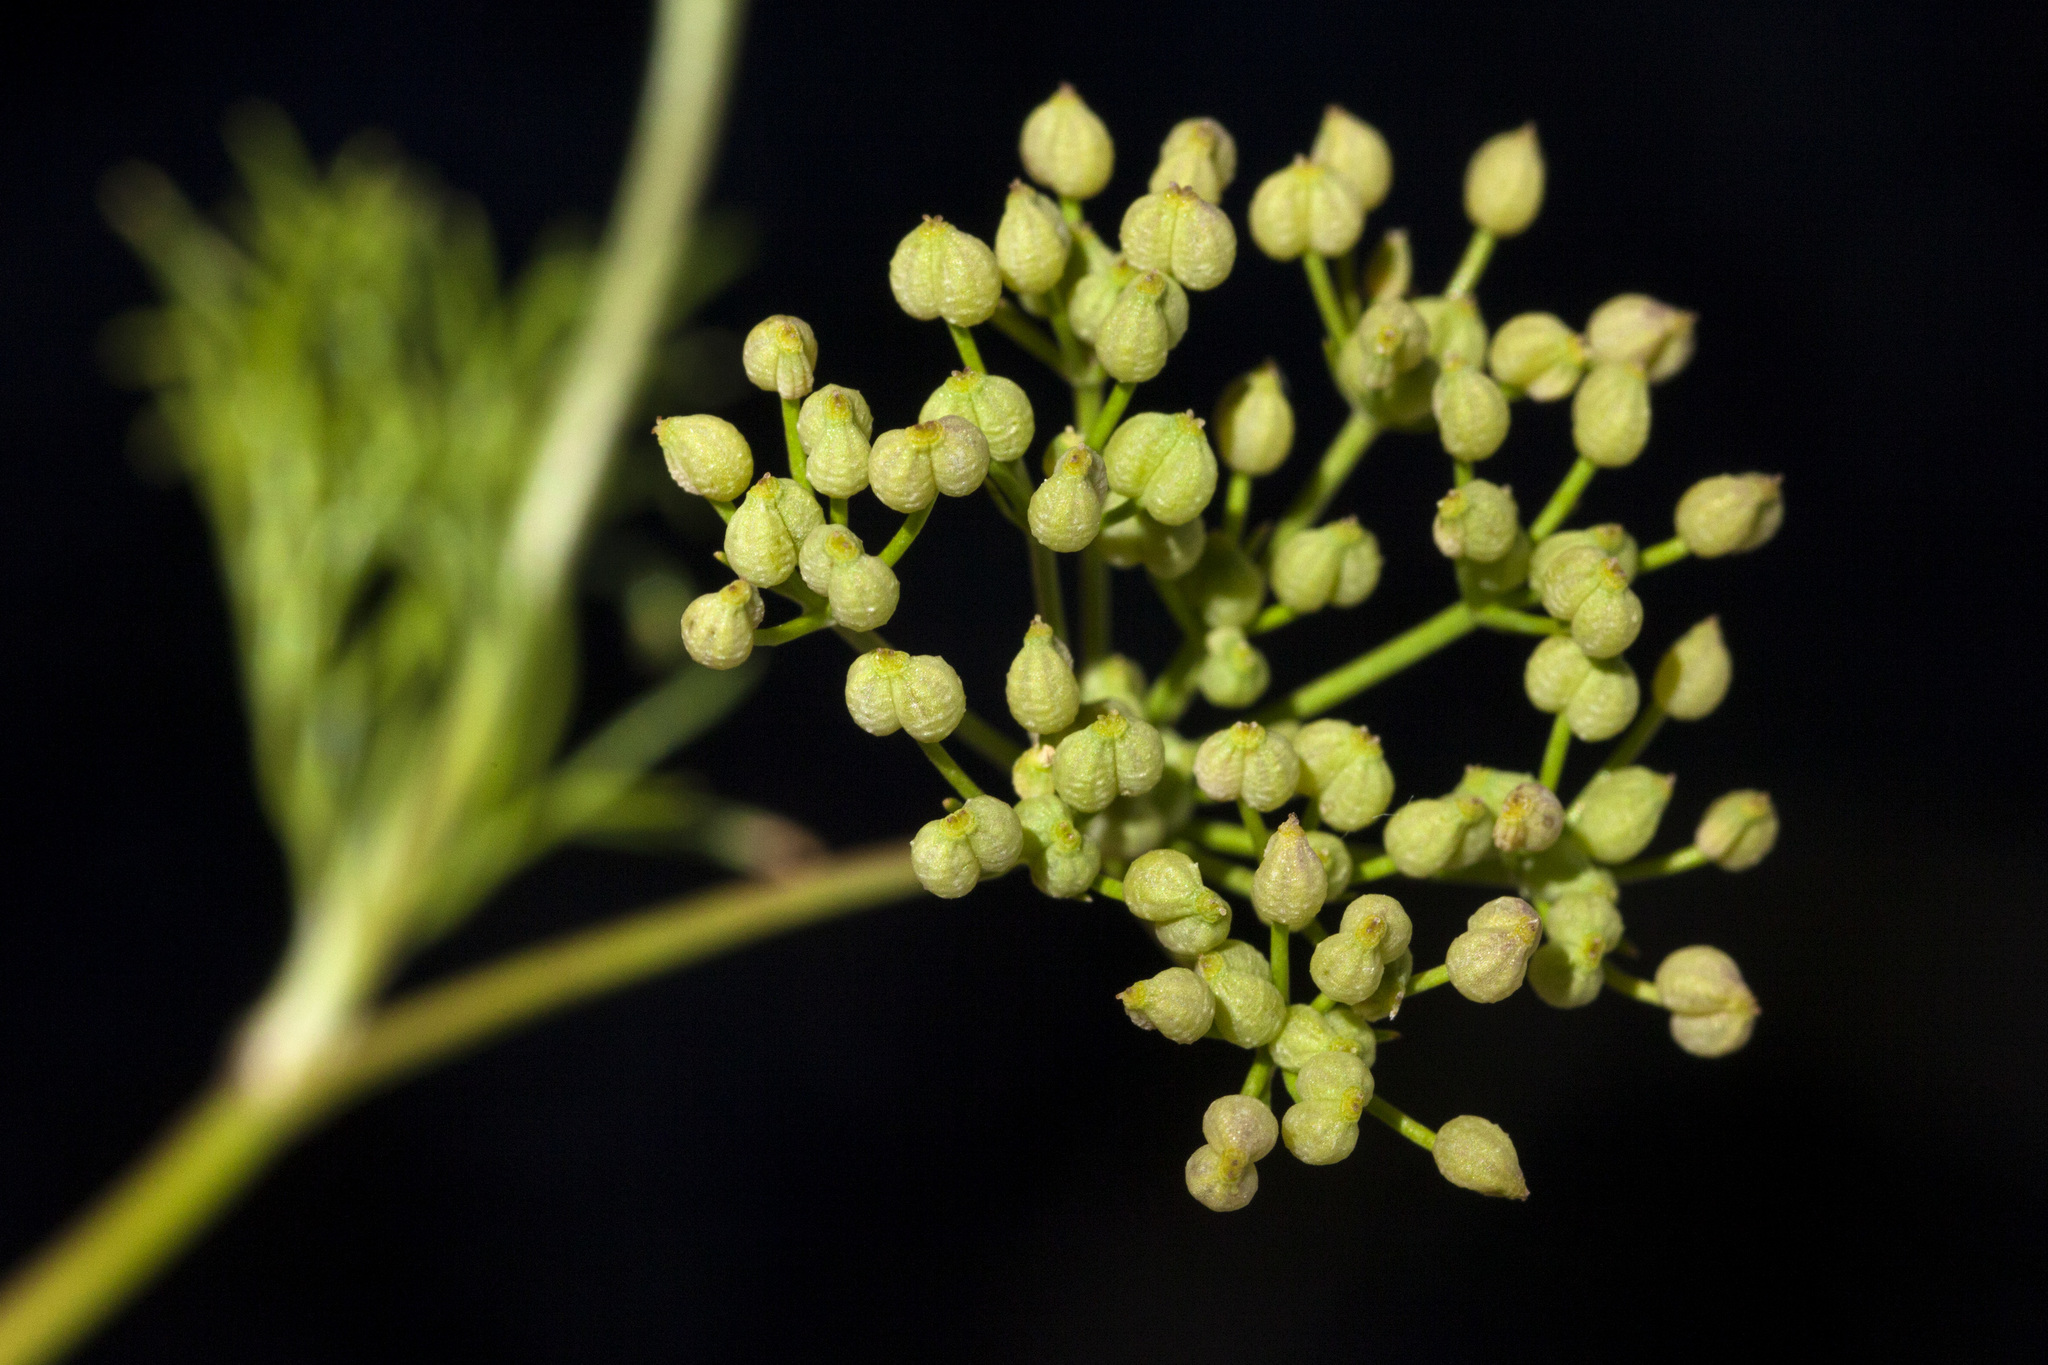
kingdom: Plantae
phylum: Tracheophyta
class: Magnoliopsida
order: Apiales
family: Apiaceae
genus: Spermolepis
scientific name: Spermolepis organensis
